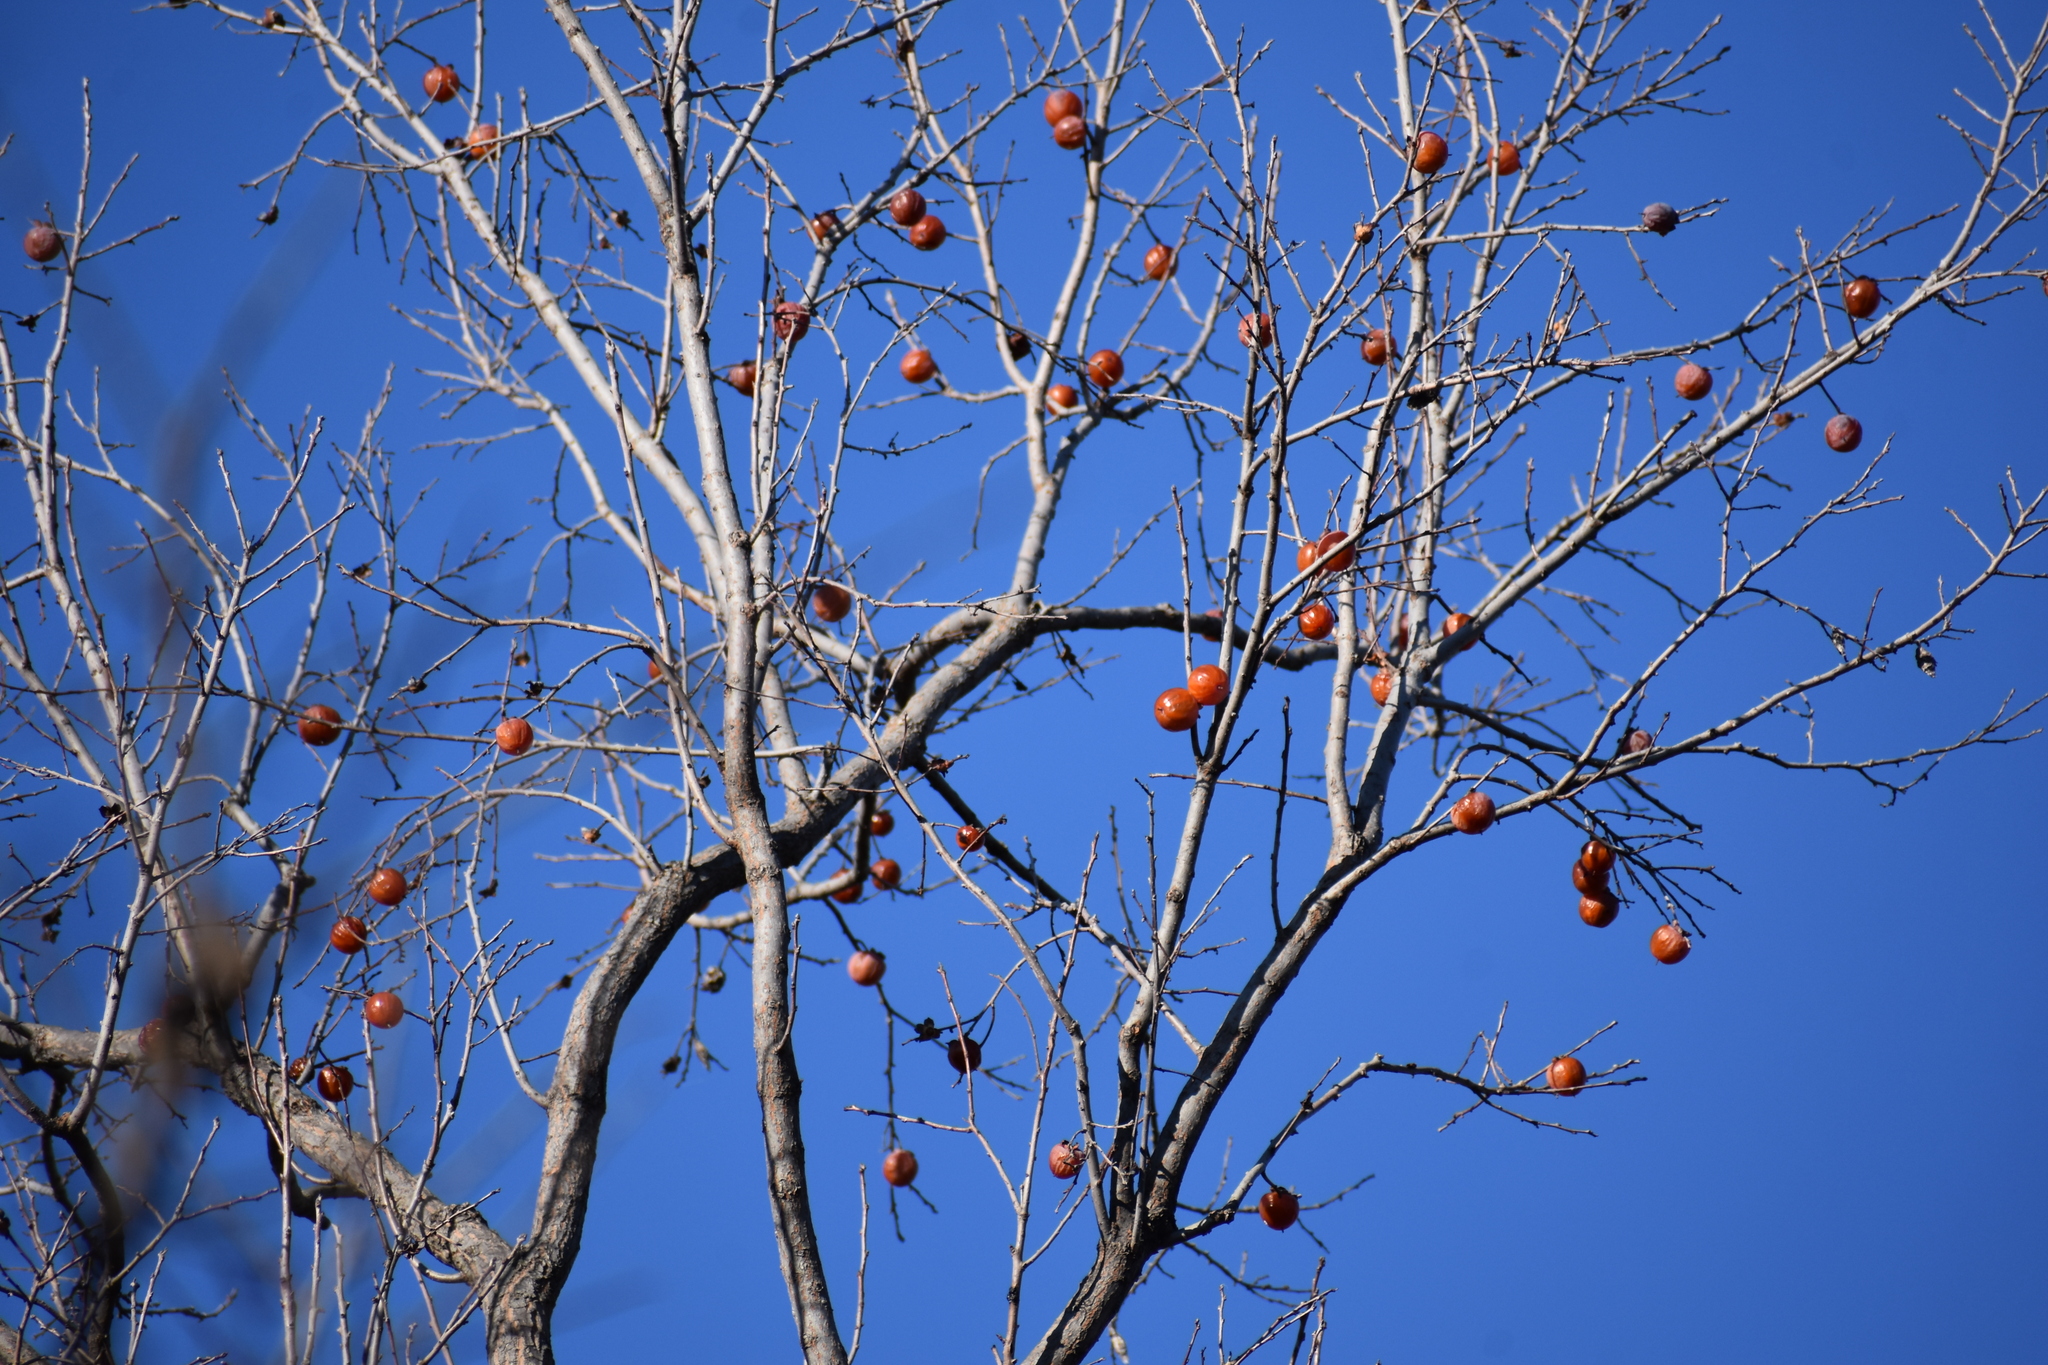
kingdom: Plantae
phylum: Tracheophyta
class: Magnoliopsida
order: Ericales
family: Ebenaceae
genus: Diospyros
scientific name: Diospyros virginiana
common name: Persimmon
